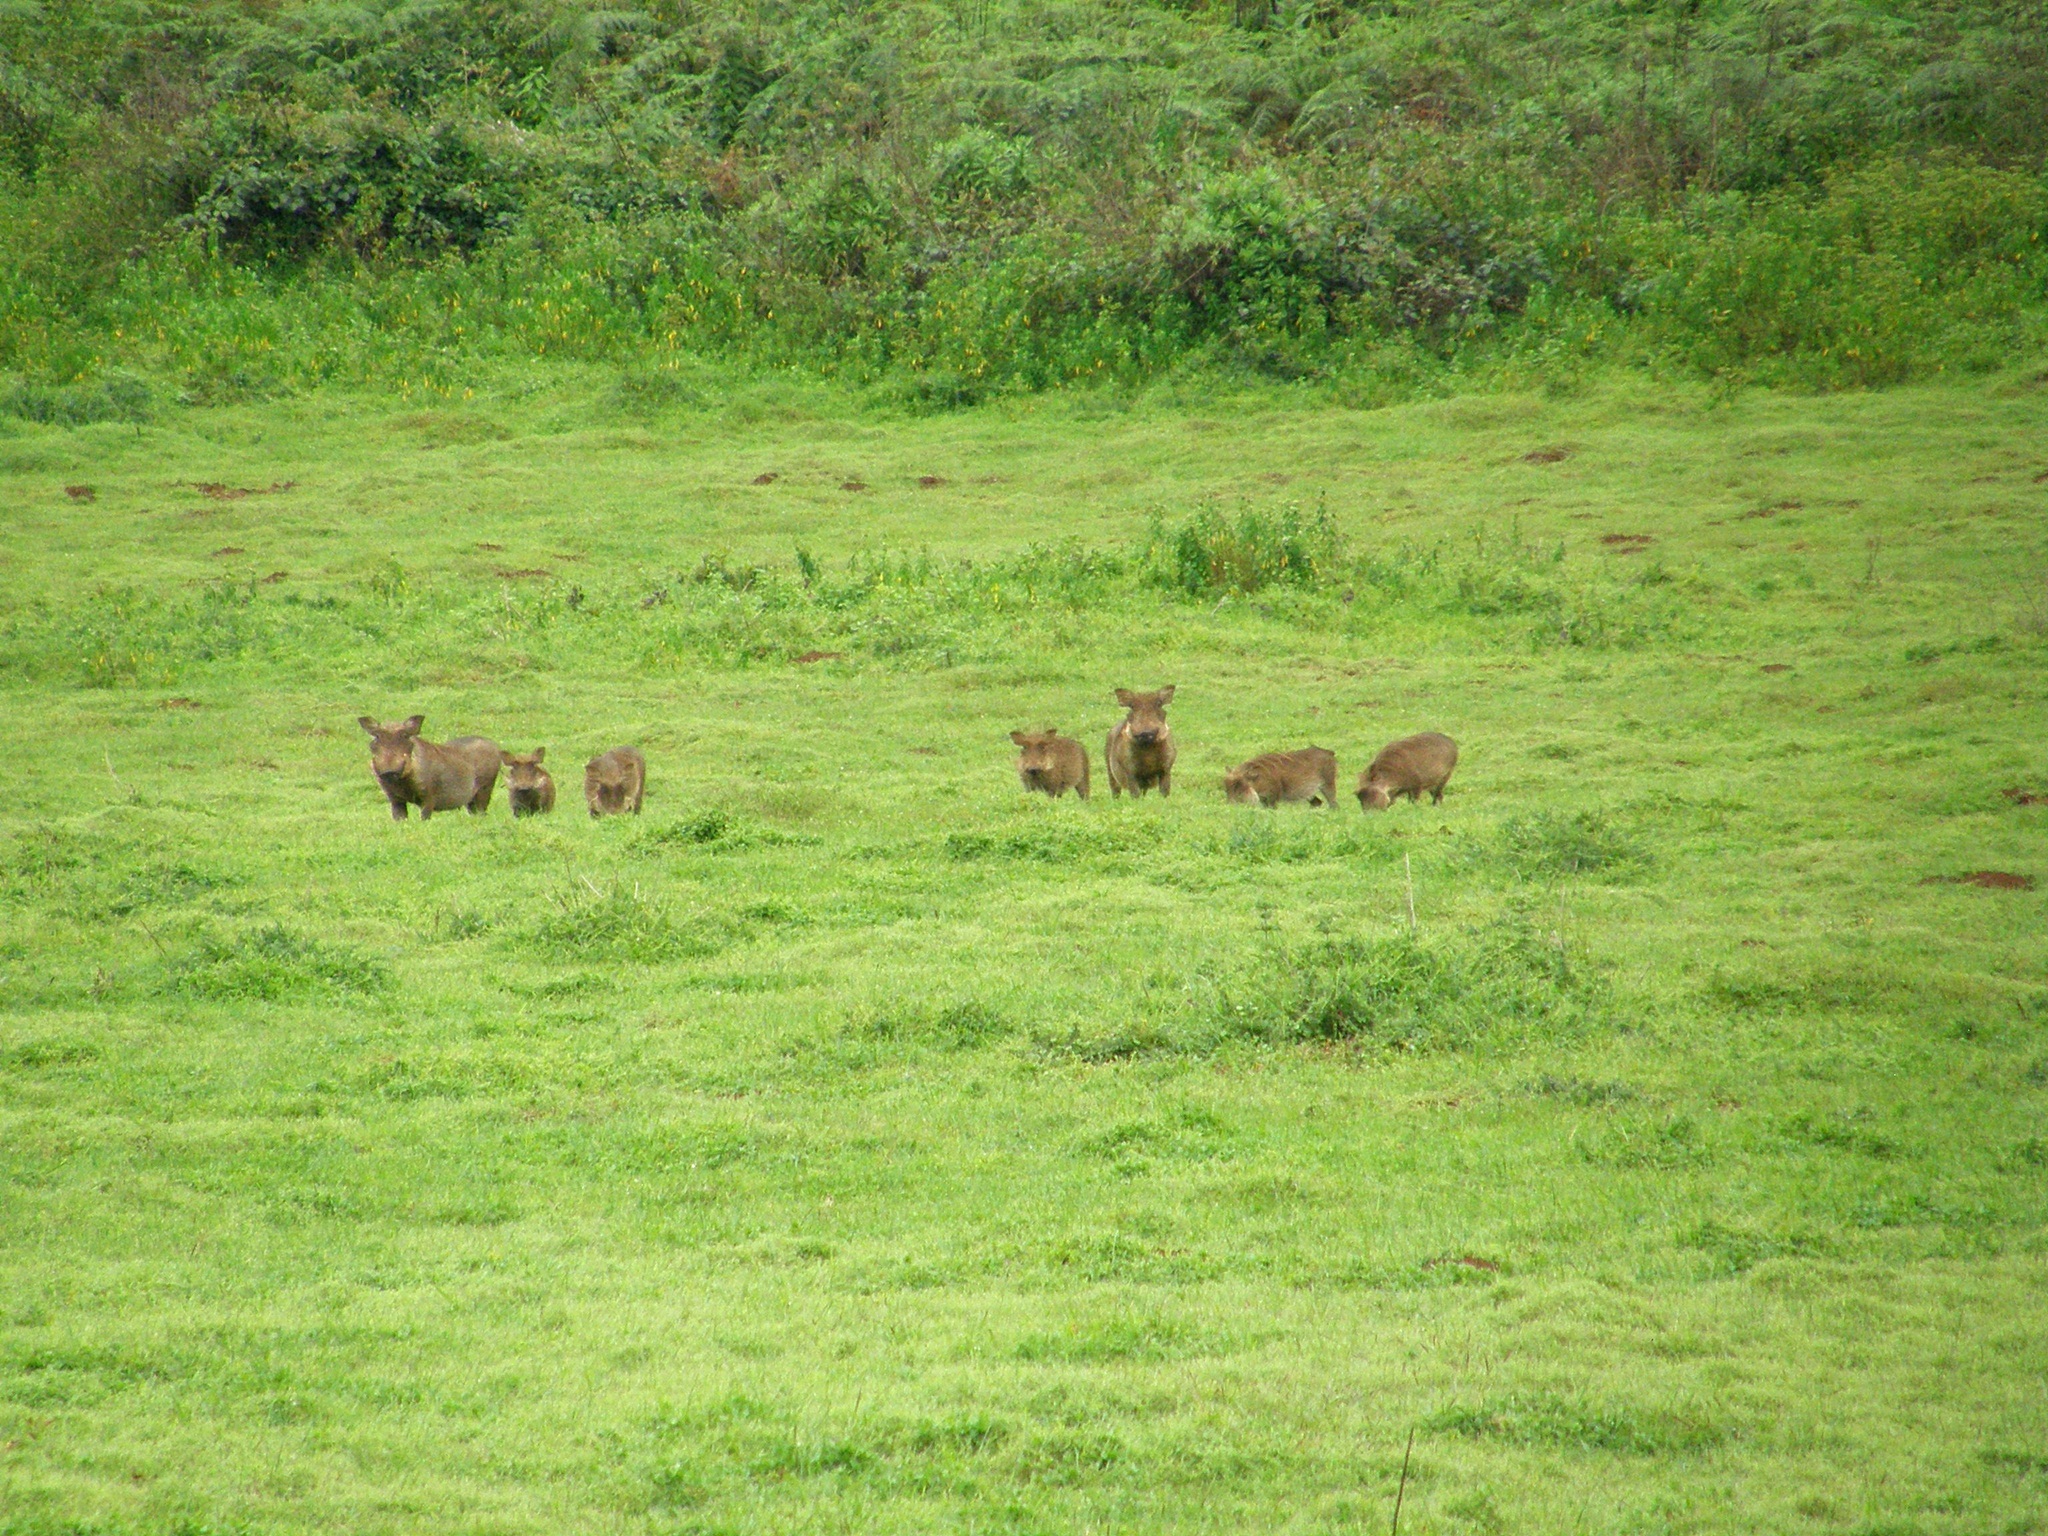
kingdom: Animalia
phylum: Chordata
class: Mammalia
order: Artiodactyla
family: Suidae
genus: Phacochoerus
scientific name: Phacochoerus africanus
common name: Common warthog
